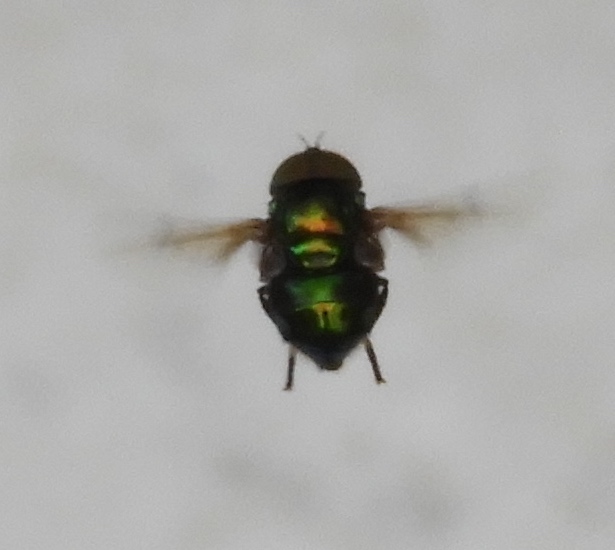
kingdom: Animalia
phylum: Arthropoda
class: Insecta
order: Diptera
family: Syrphidae
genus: Ornidia
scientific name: Ornidia
